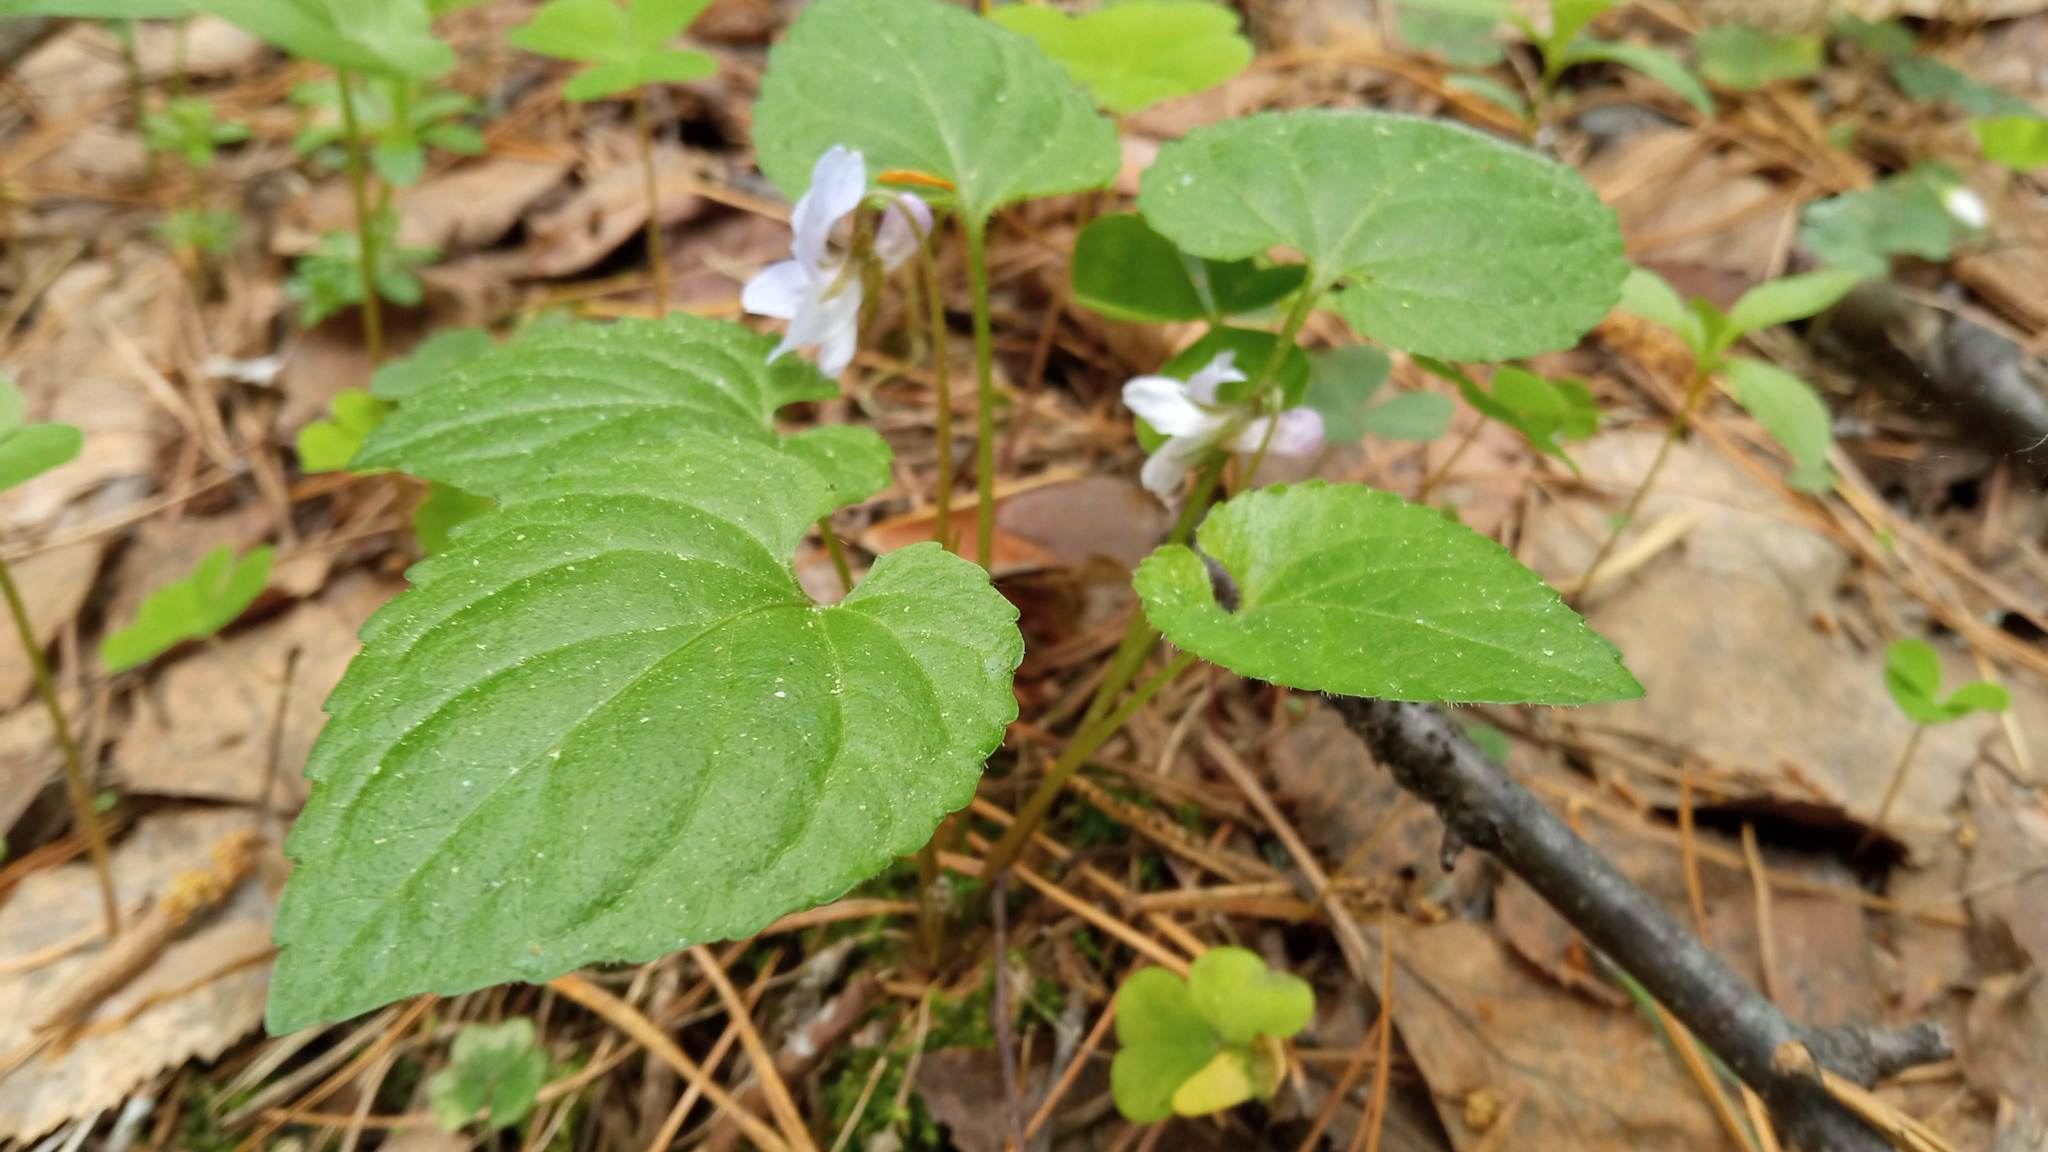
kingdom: Plantae
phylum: Tracheophyta
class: Magnoliopsida
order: Malpighiales
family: Violaceae
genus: Viola
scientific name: Viola selkirkii
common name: Selkirk's violet
